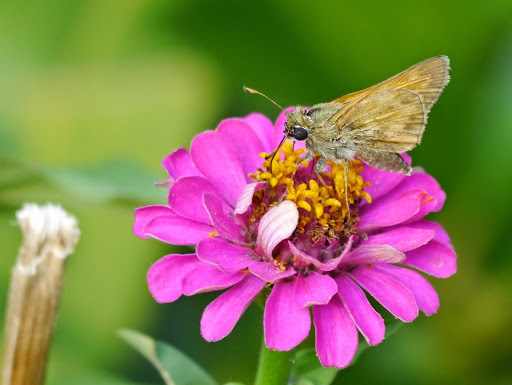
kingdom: Animalia
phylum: Arthropoda
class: Insecta
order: Lepidoptera
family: Hesperiidae
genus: Atalopedes
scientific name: Atalopedes
